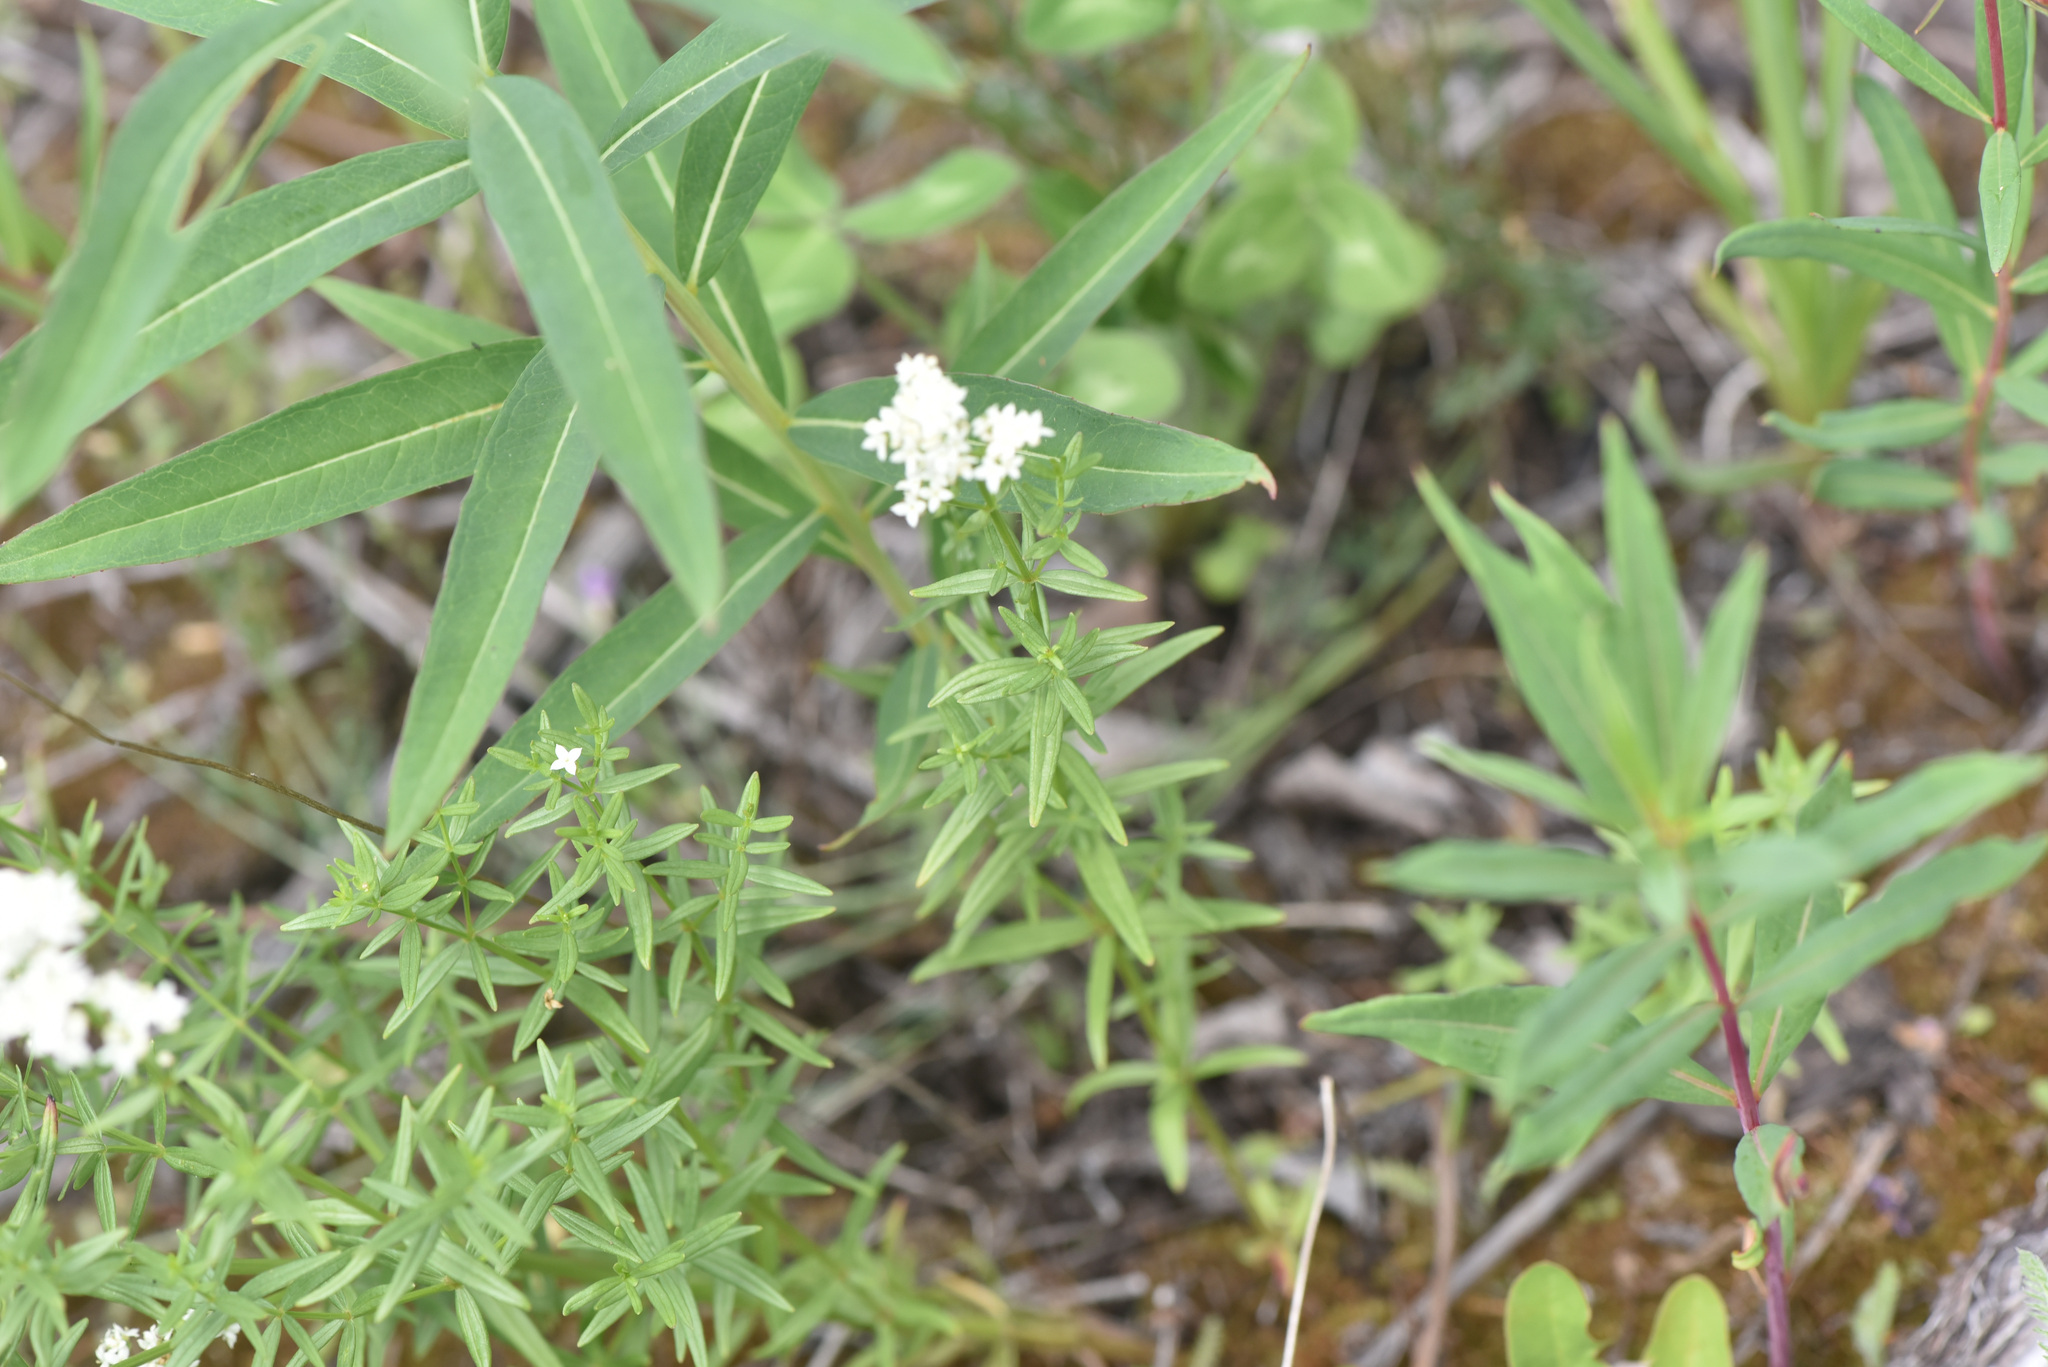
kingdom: Plantae
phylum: Tracheophyta
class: Magnoliopsida
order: Gentianales
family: Rubiaceae
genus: Galium
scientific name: Galium boreale
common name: Northern bedstraw
